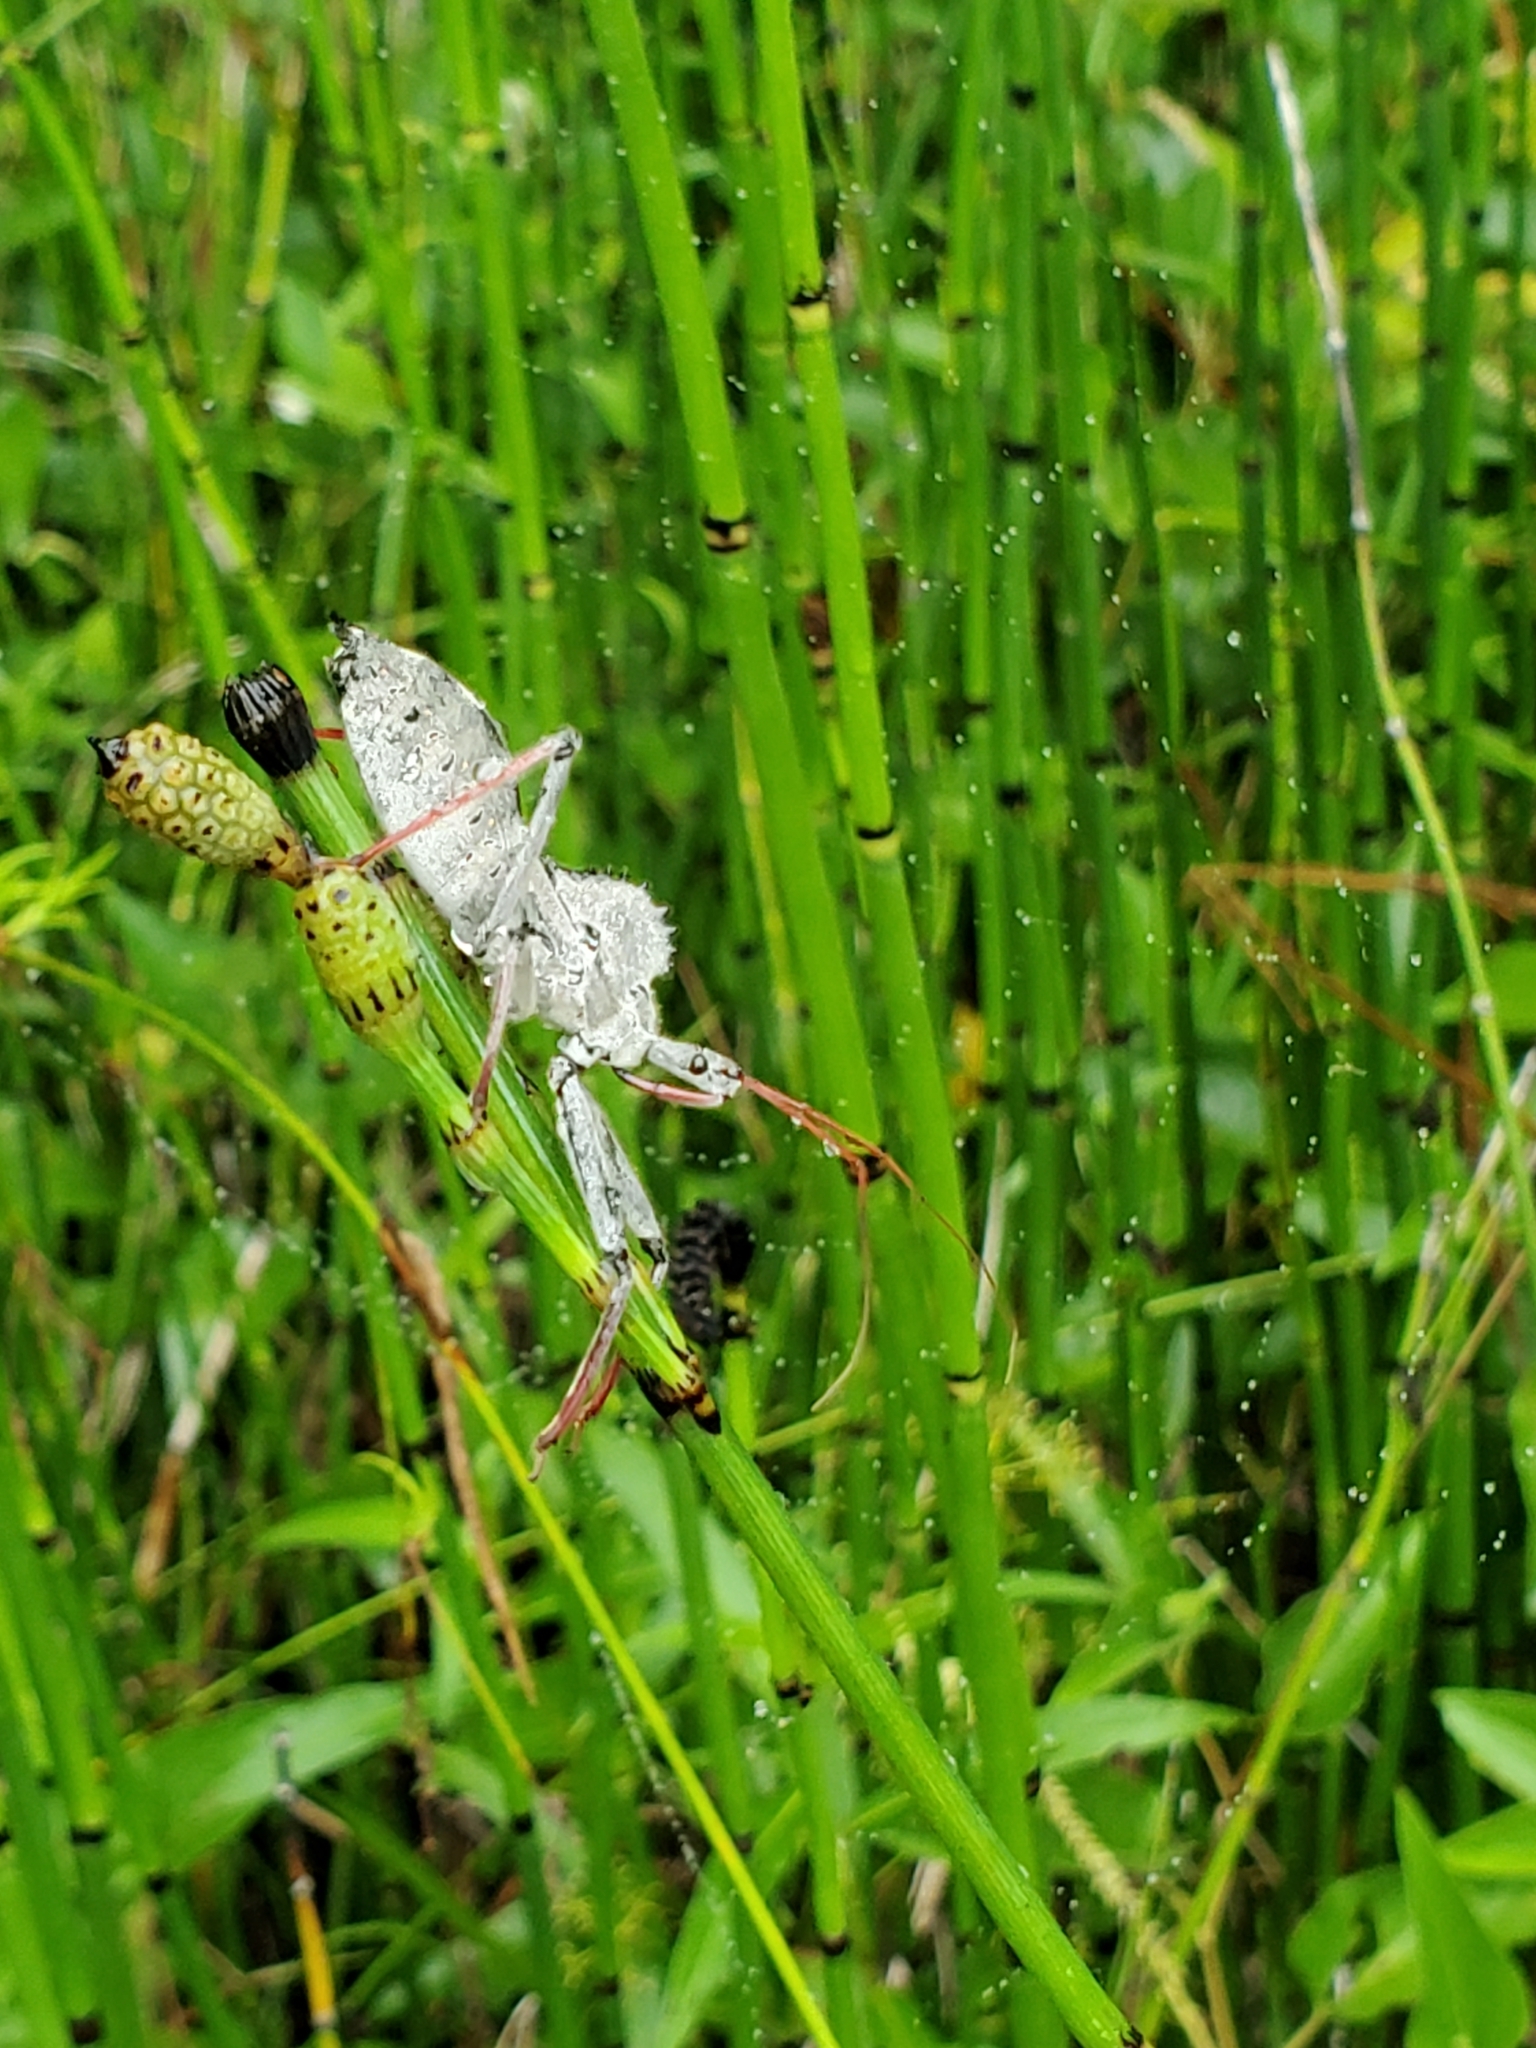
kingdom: Animalia
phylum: Arthropoda
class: Insecta
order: Hemiptera
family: Reduviidae
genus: Arilus
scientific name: Arilus cristatus
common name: North american wheel bug
